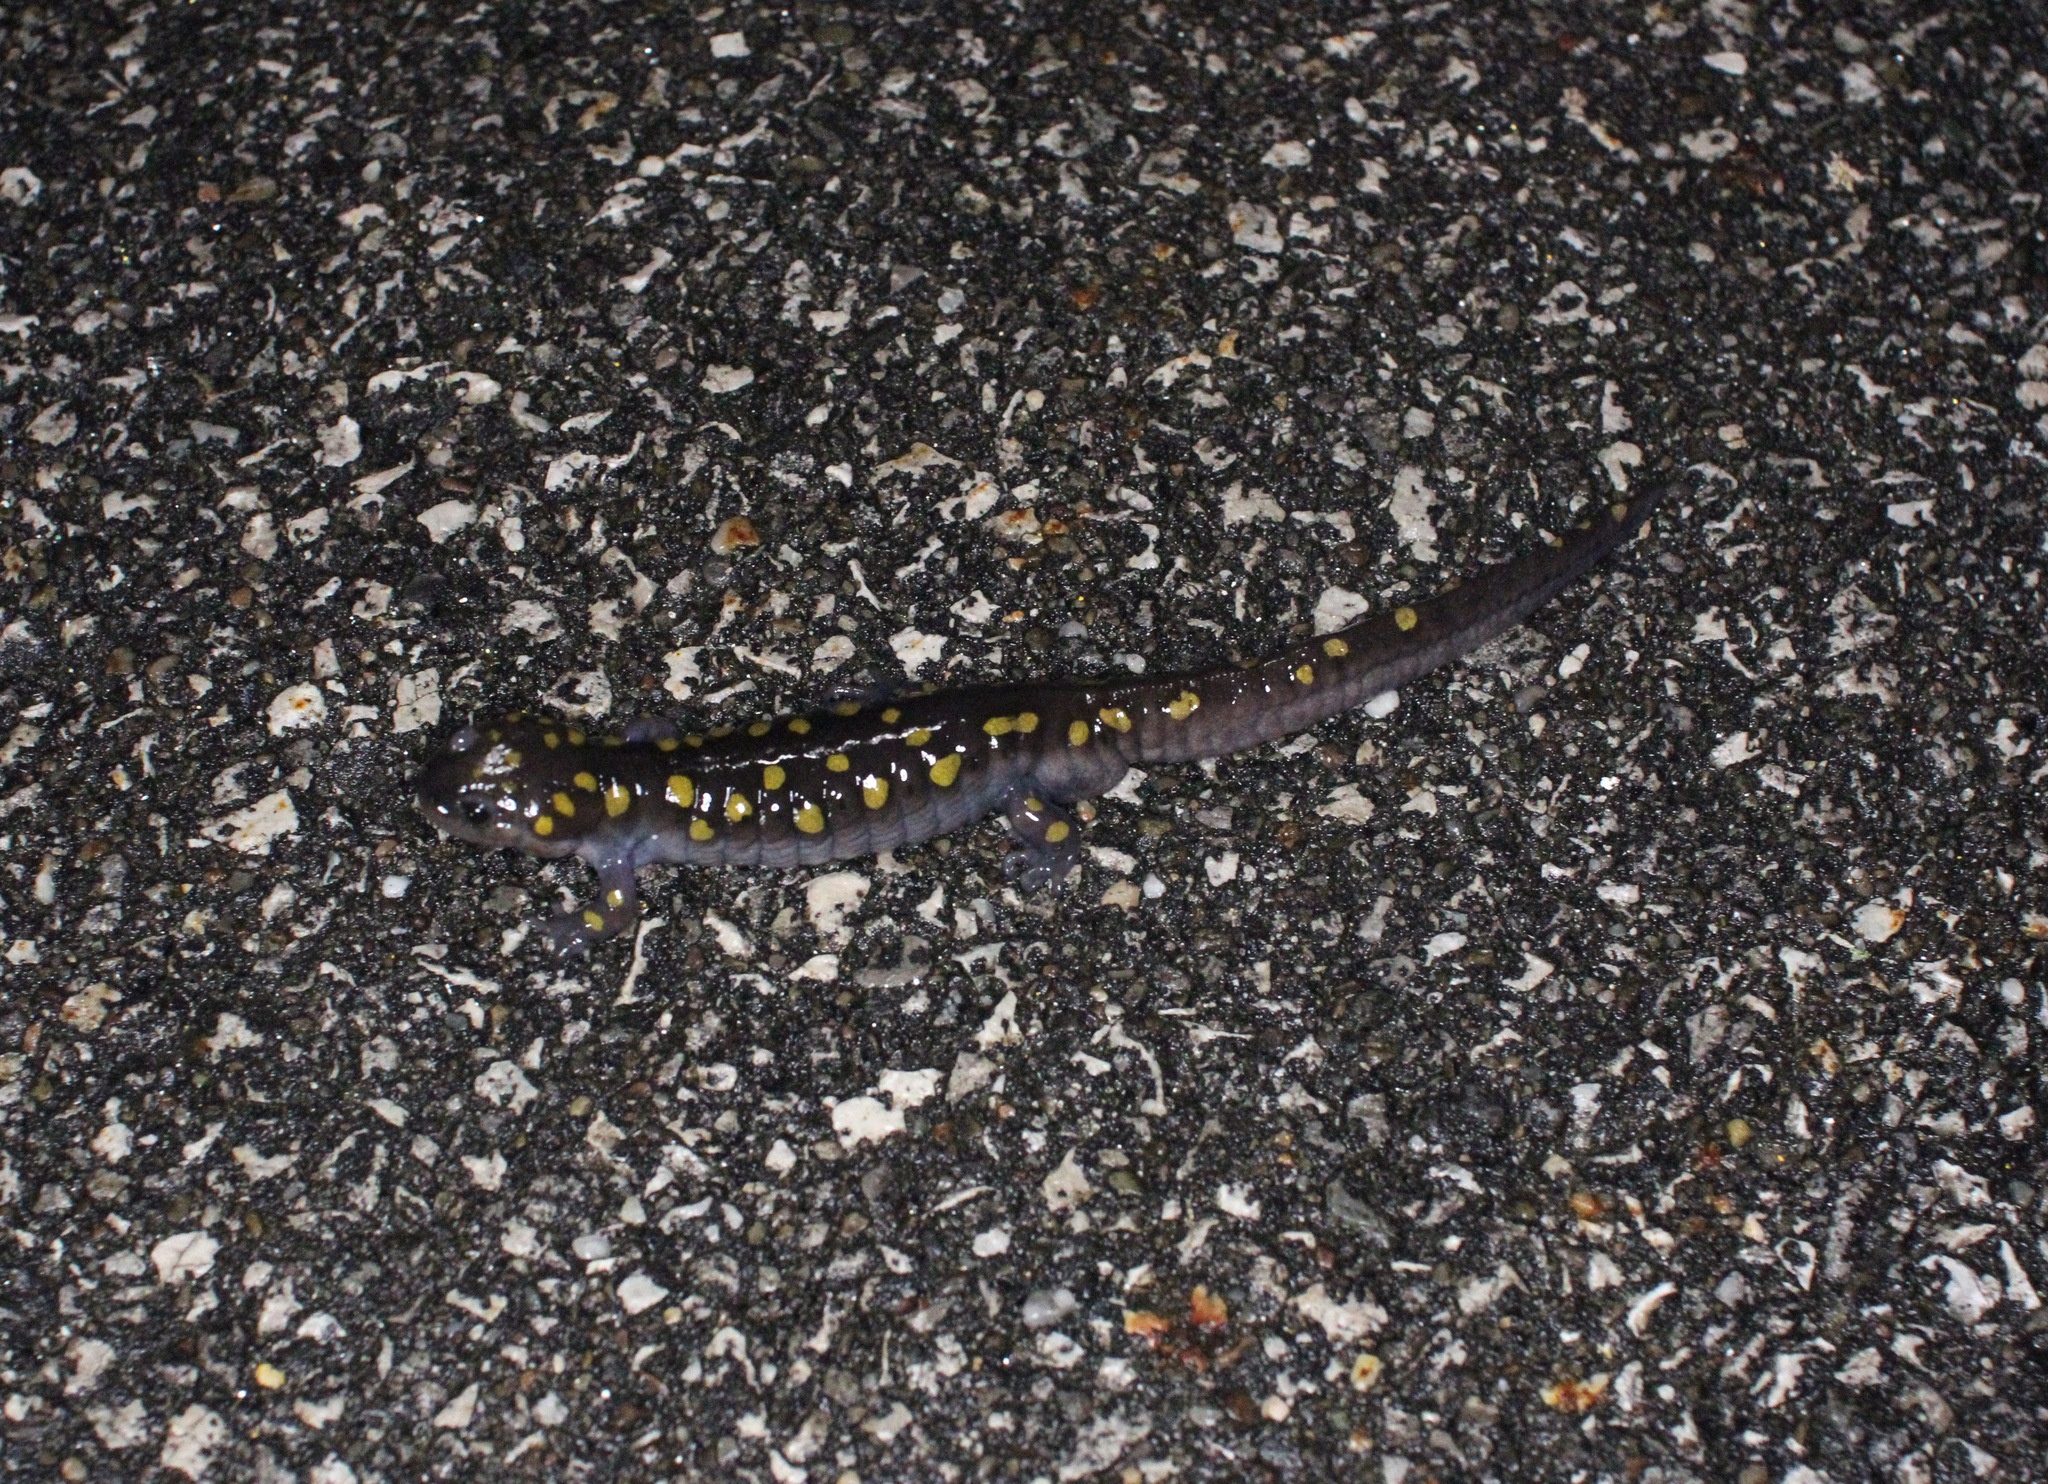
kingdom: Animalia
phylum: Chordata
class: Amphibia
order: Caudata
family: Ambystomatidae
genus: Ambystoma
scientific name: Ambystoma maculatum
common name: Spotted salamander
